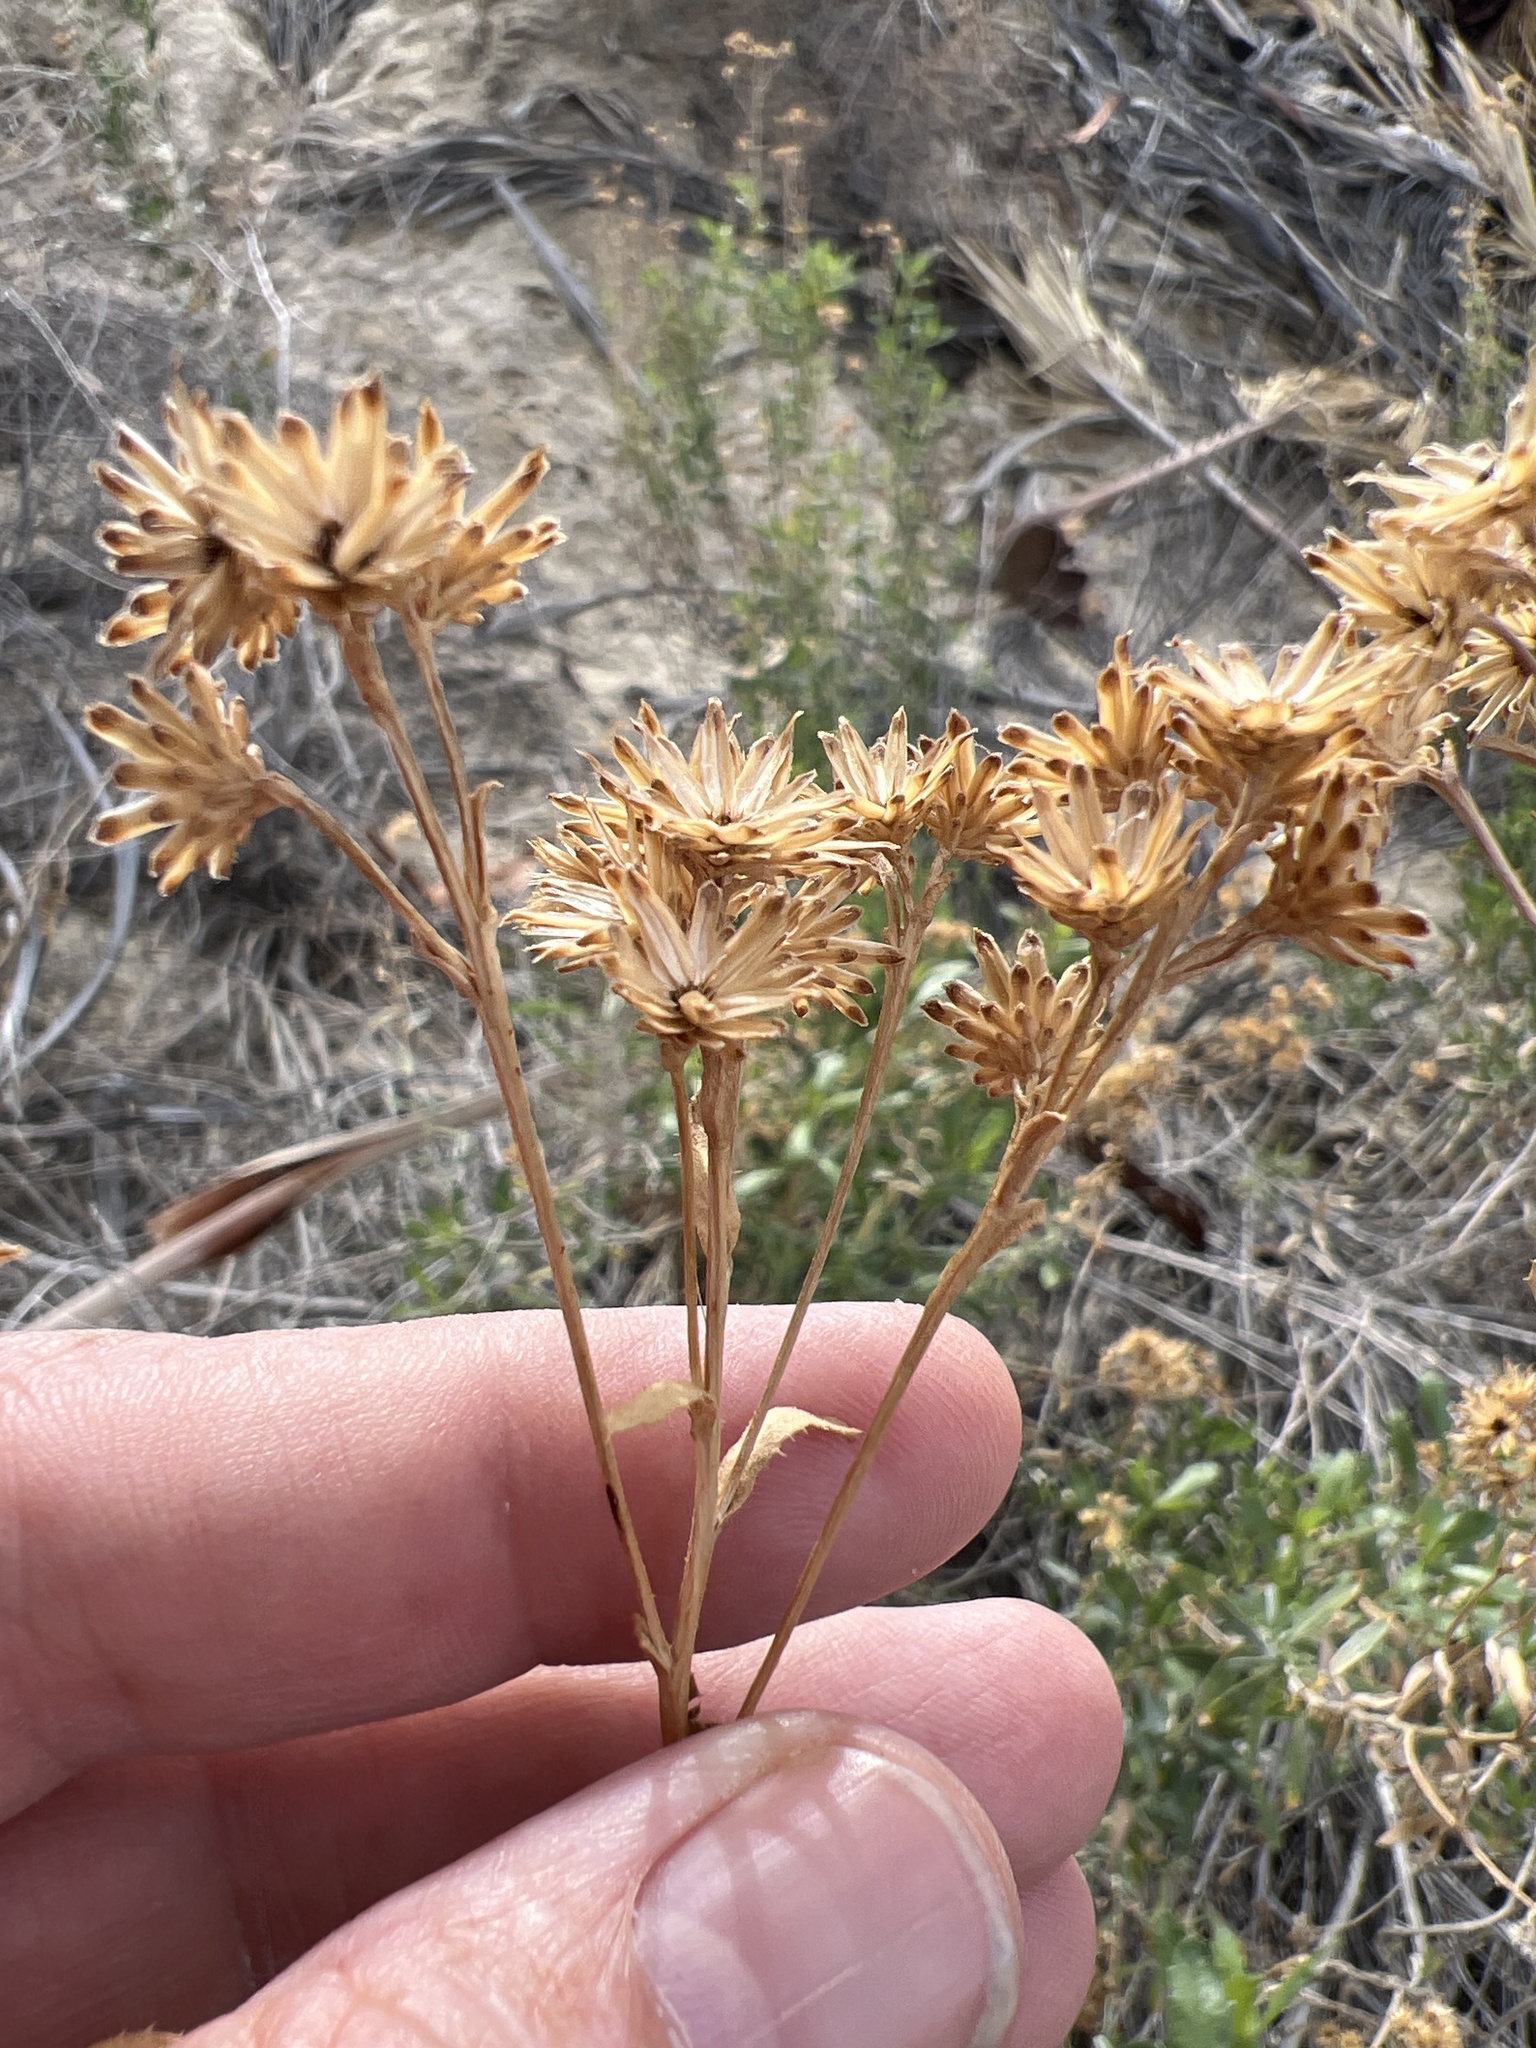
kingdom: Plantae
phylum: Tracheophyta
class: Magnoliopsida
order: Asterales
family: Asteraceae
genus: Isocoma
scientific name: Isocoma acradenia
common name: Alkali jimmyweed
